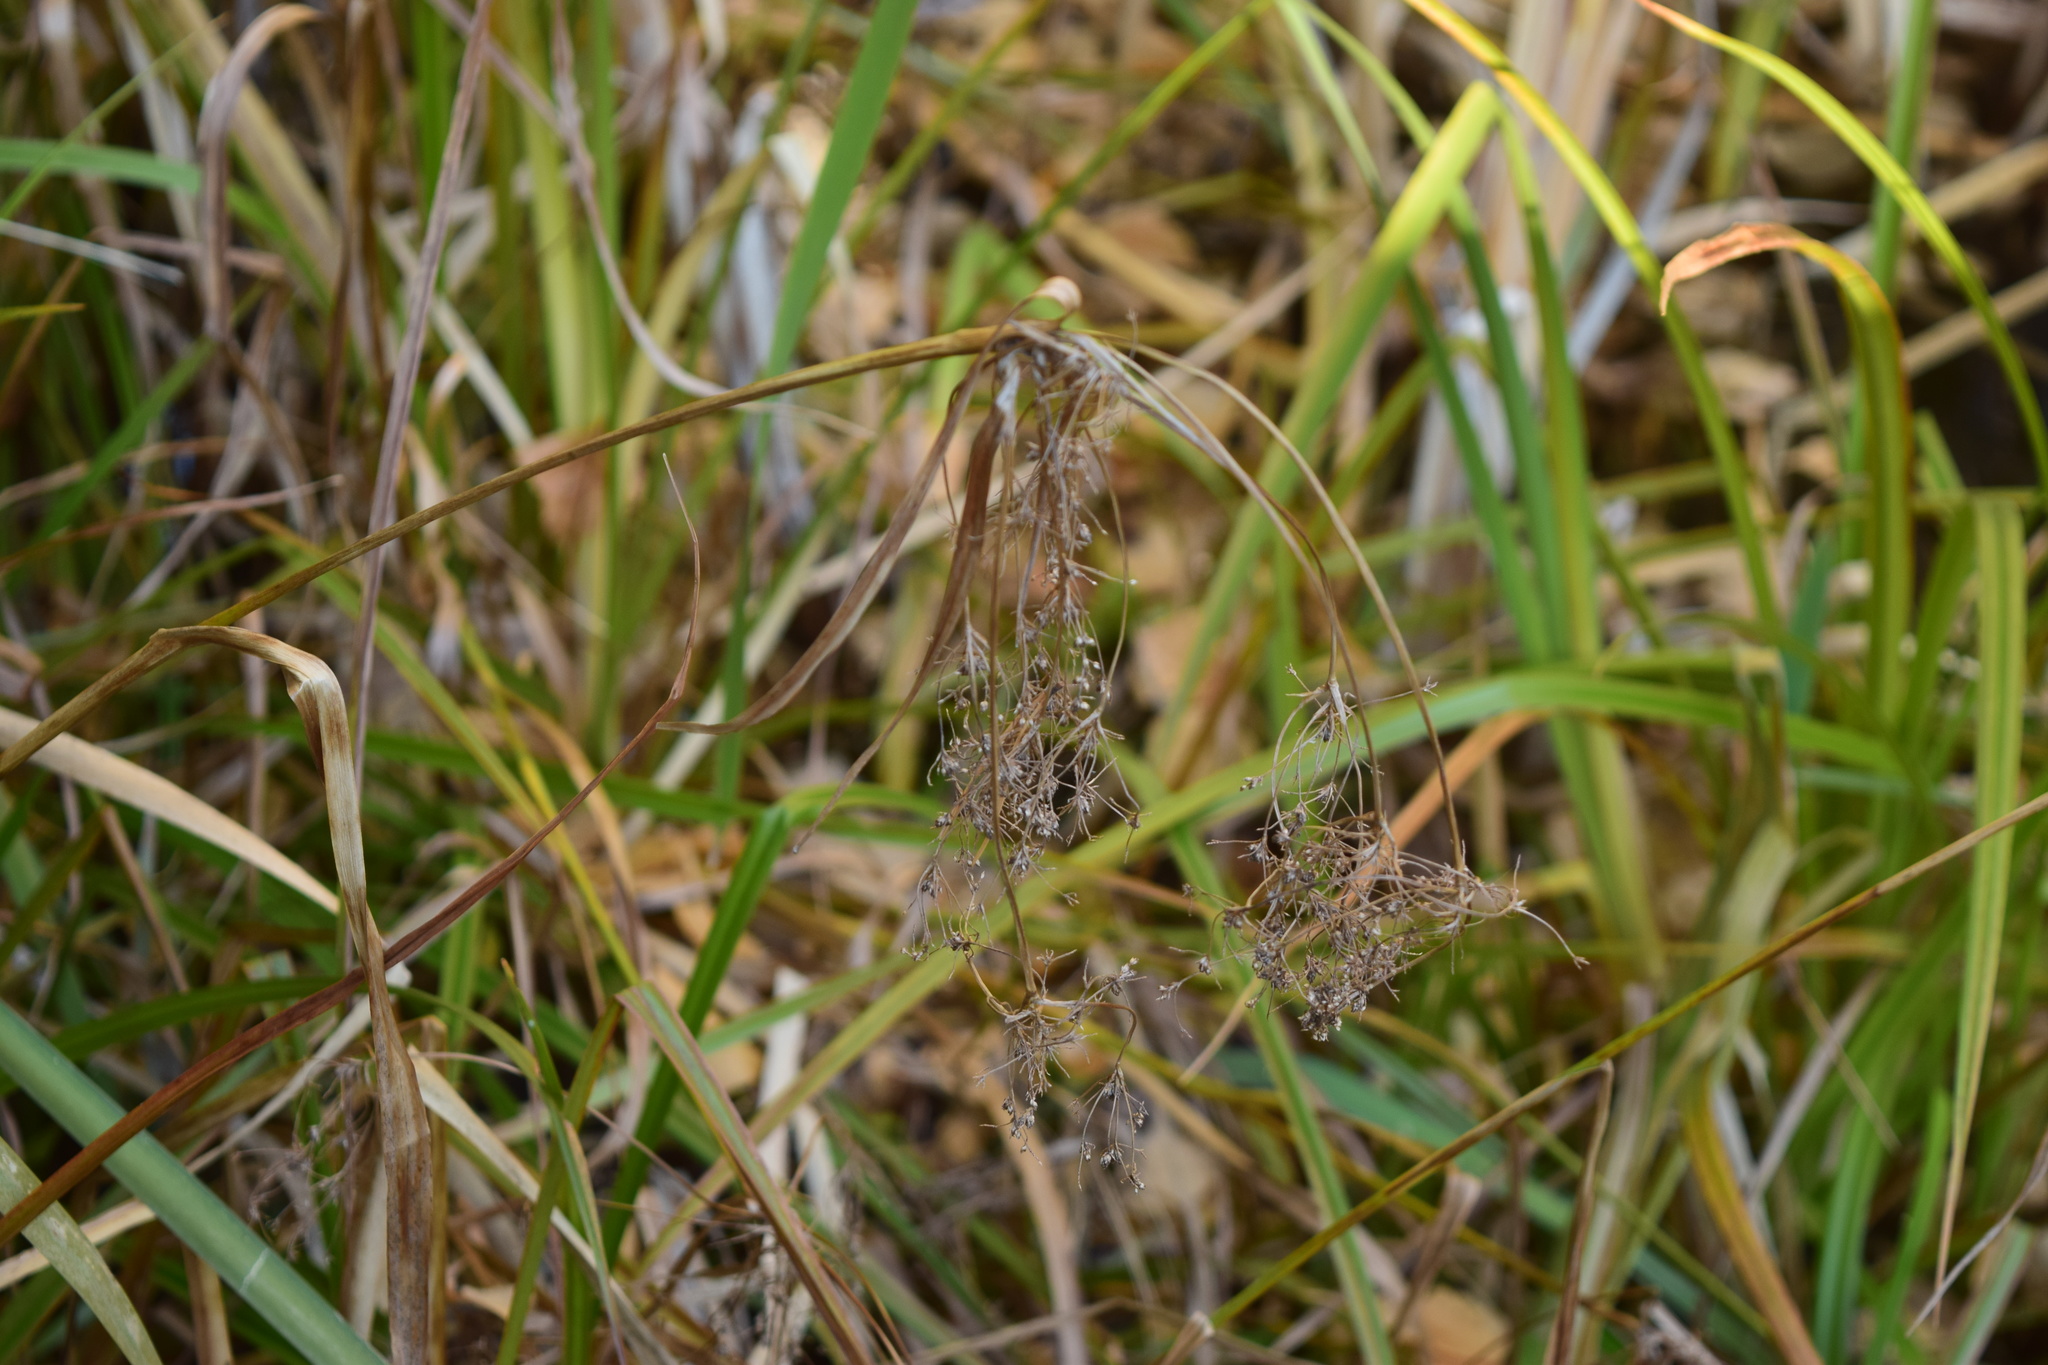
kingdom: Plantae
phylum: Tracheophyta
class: Liliopsida
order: Poales
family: Cyperaceae
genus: Scirpus
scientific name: Scirpus sylvaticus
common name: Wood club-rush
